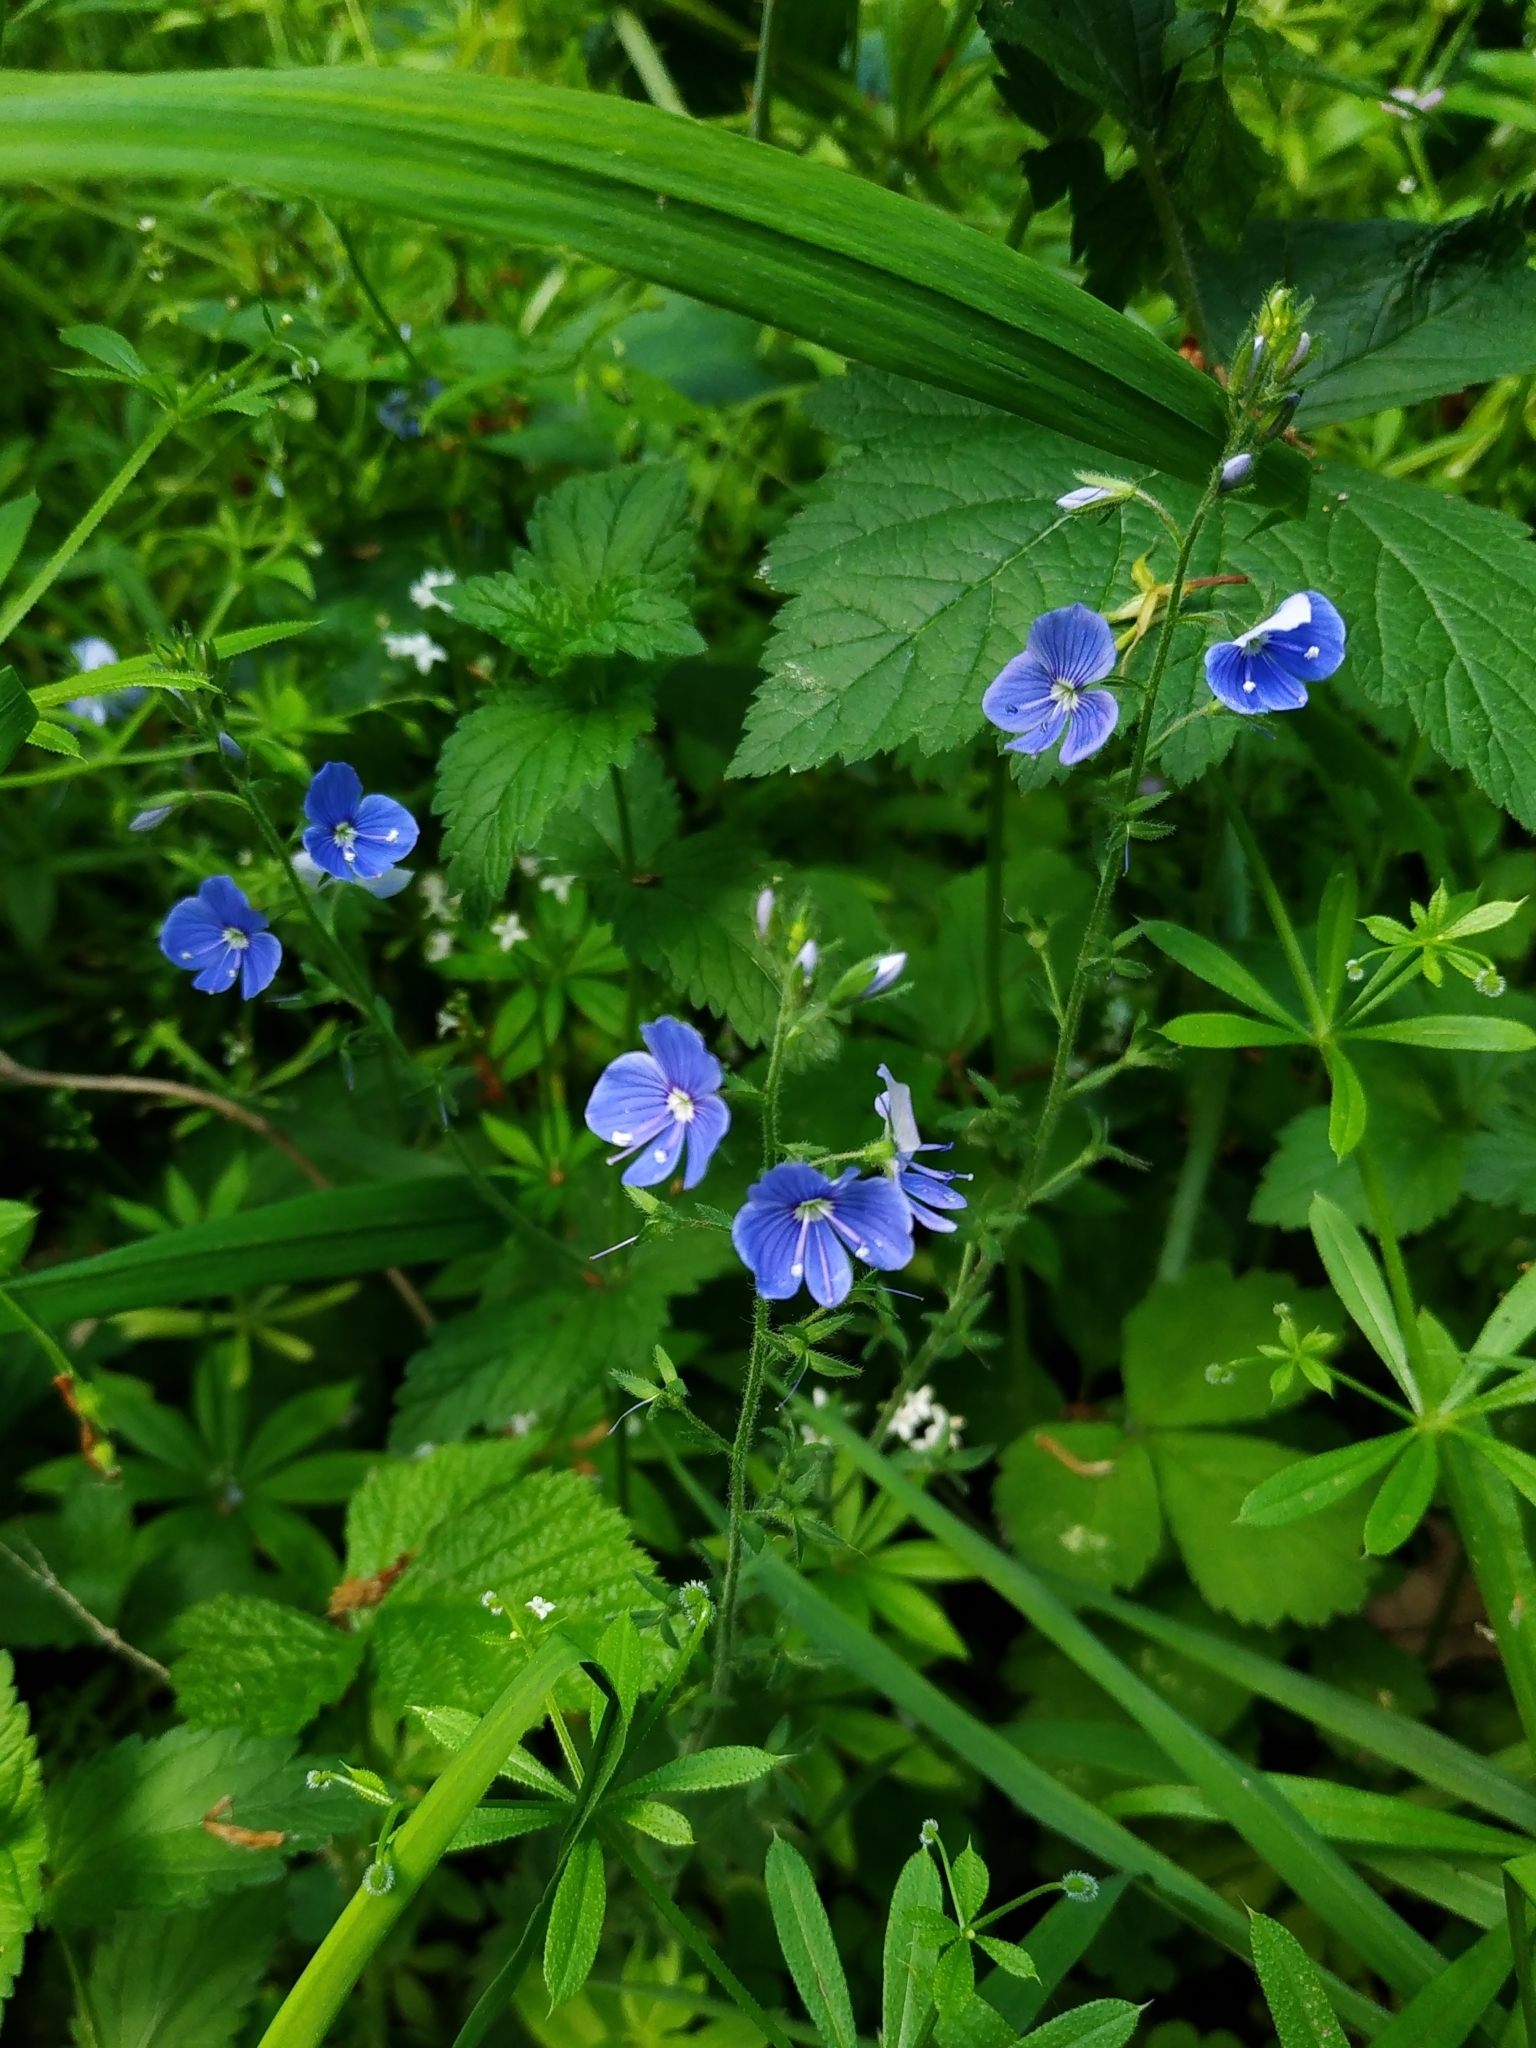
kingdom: Plantae
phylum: Tracheophyta
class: Magnoliopsida
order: Lamiales
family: Plantaginaceae
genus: Veronica
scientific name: Veronica chamaedrys
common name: Germander speedwell
